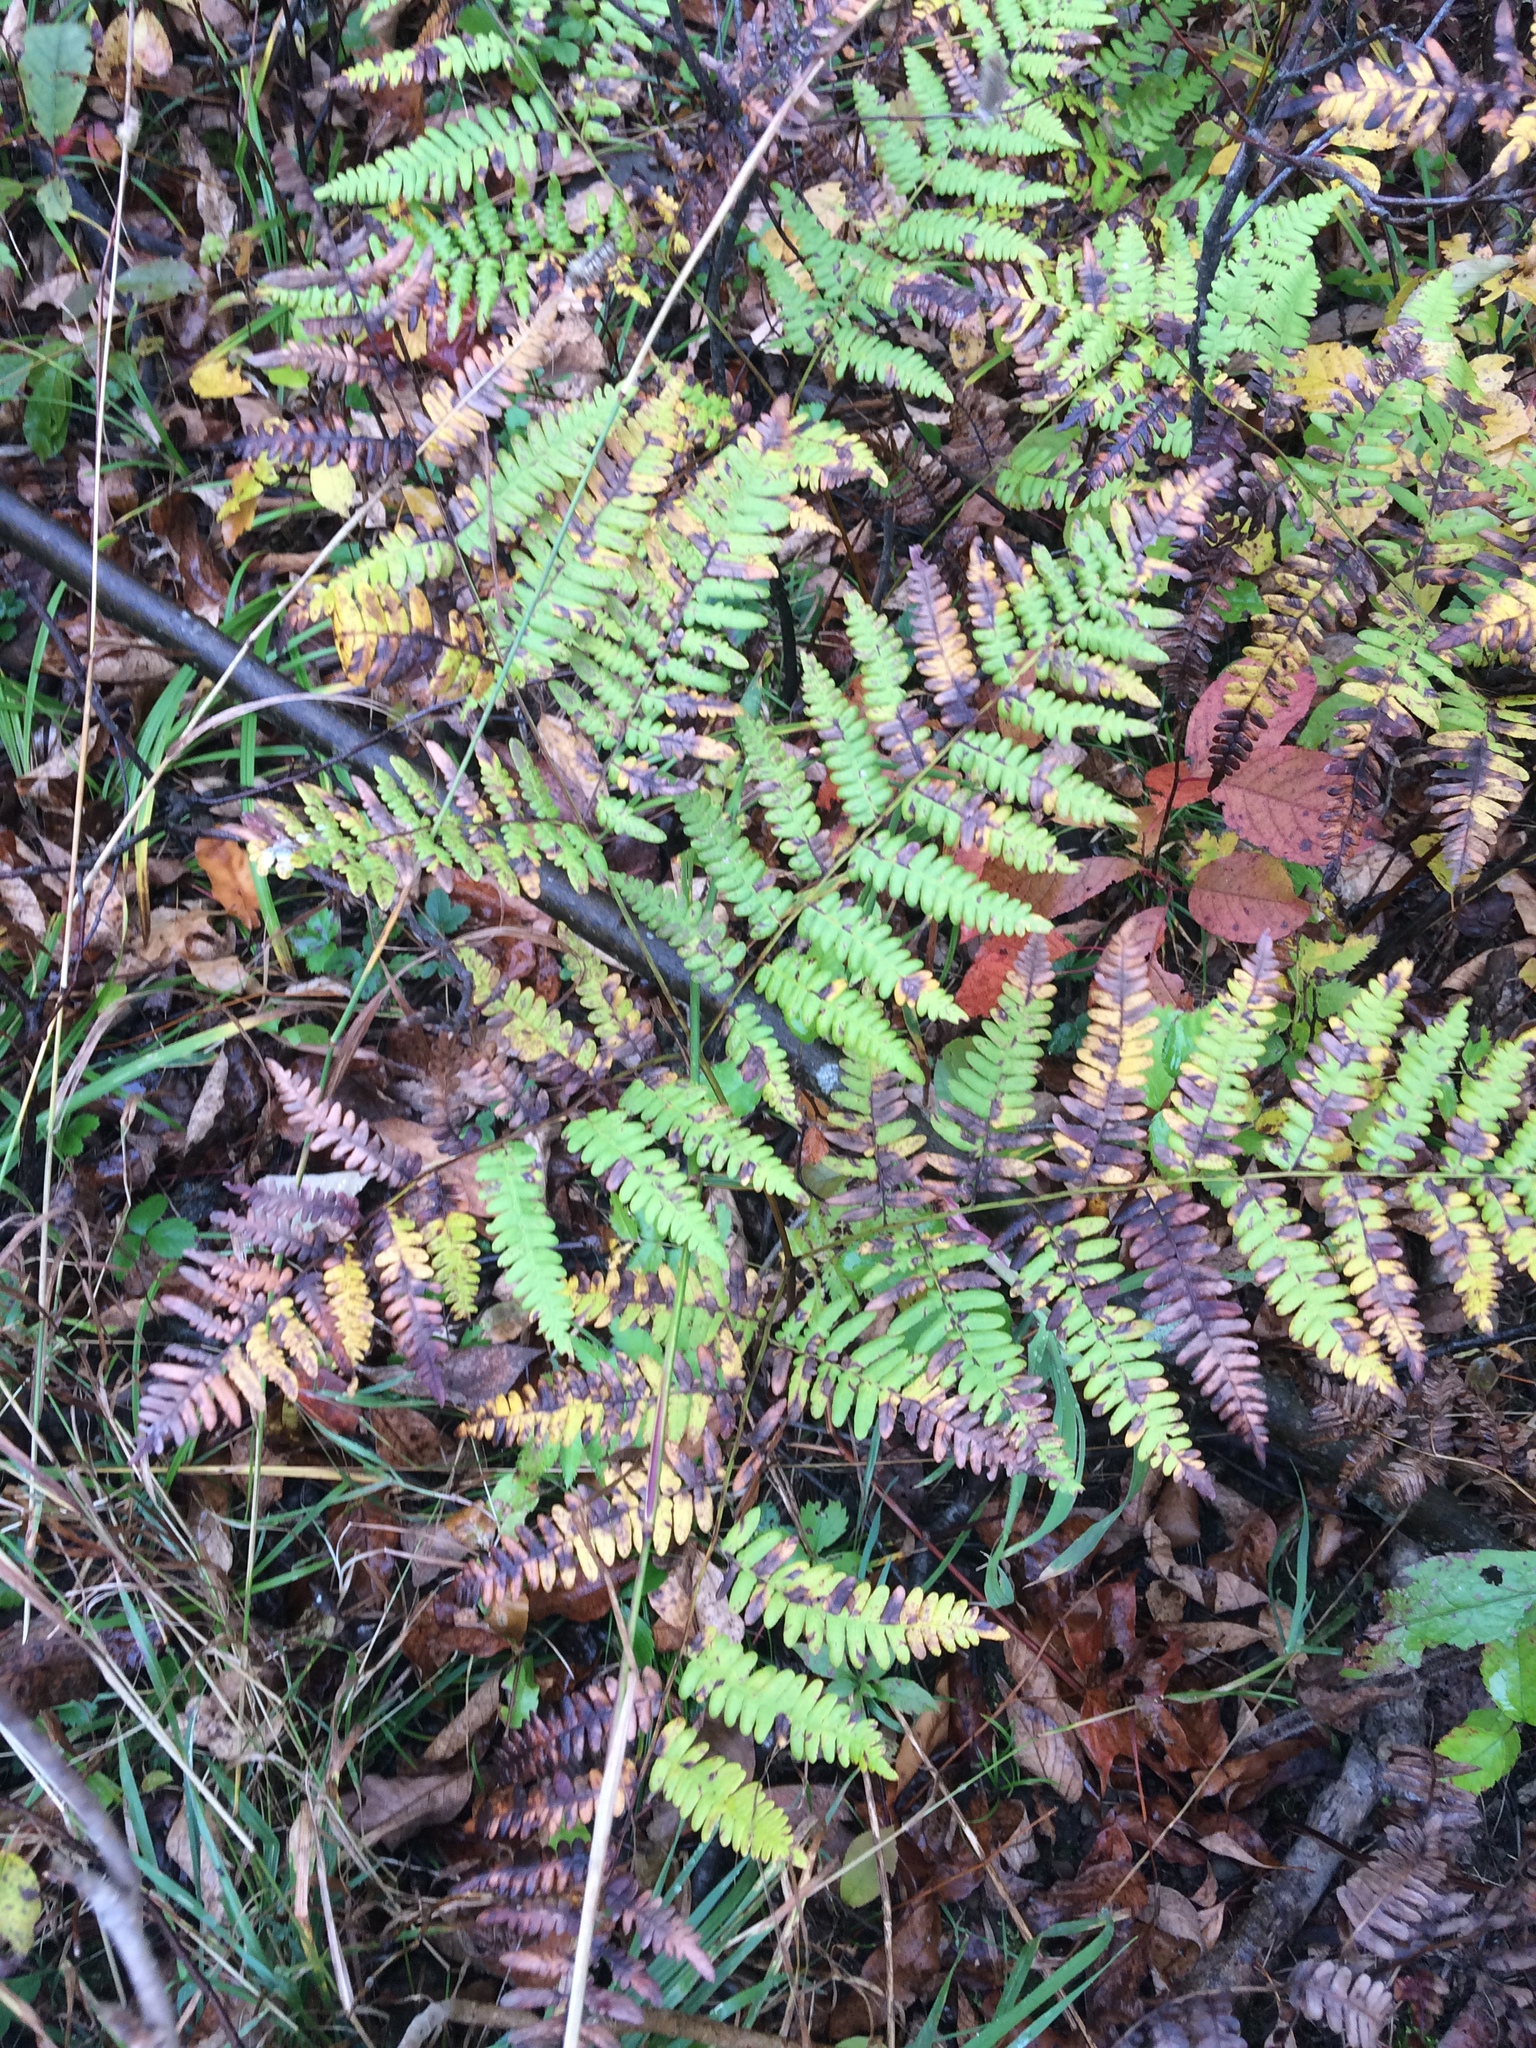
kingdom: Plantae
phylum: Tracheophyta
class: Polypodiopsida
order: Polypodiales
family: Dennstaedtiaceae
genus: Pteridium
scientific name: Pteridium aquilinum
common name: Bracken
